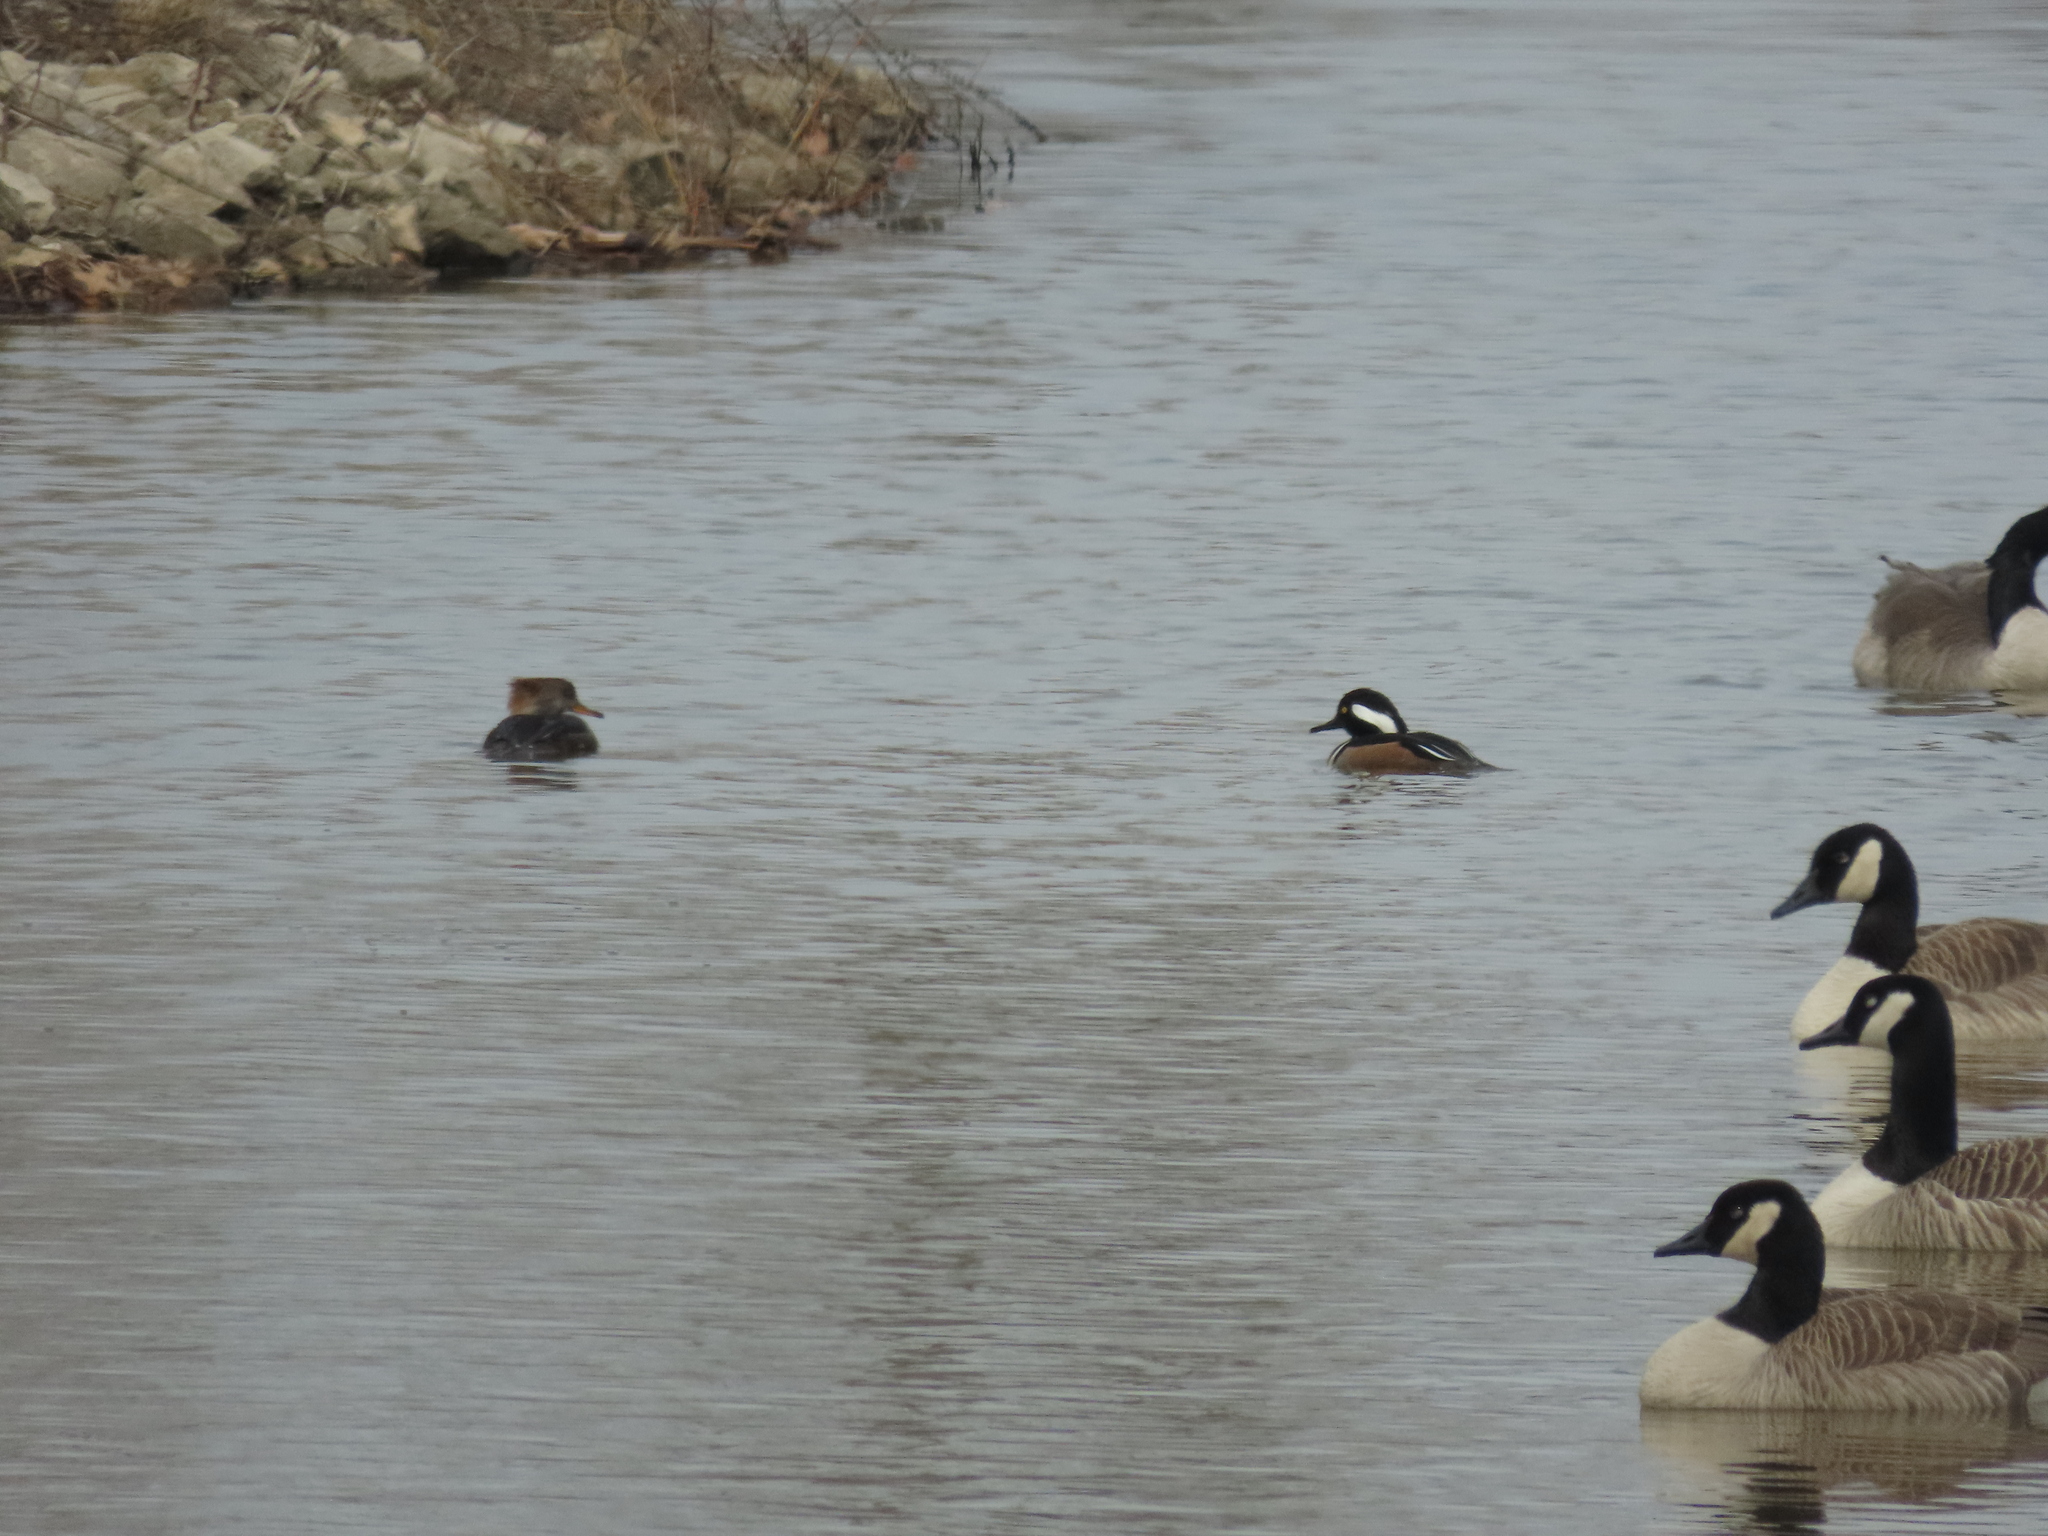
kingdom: Animalia
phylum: Chordata
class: Aves
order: Anseriformes
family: Anatidae
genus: Lophodytes
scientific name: Lophodytes cucullatus
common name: Hooded merganser
